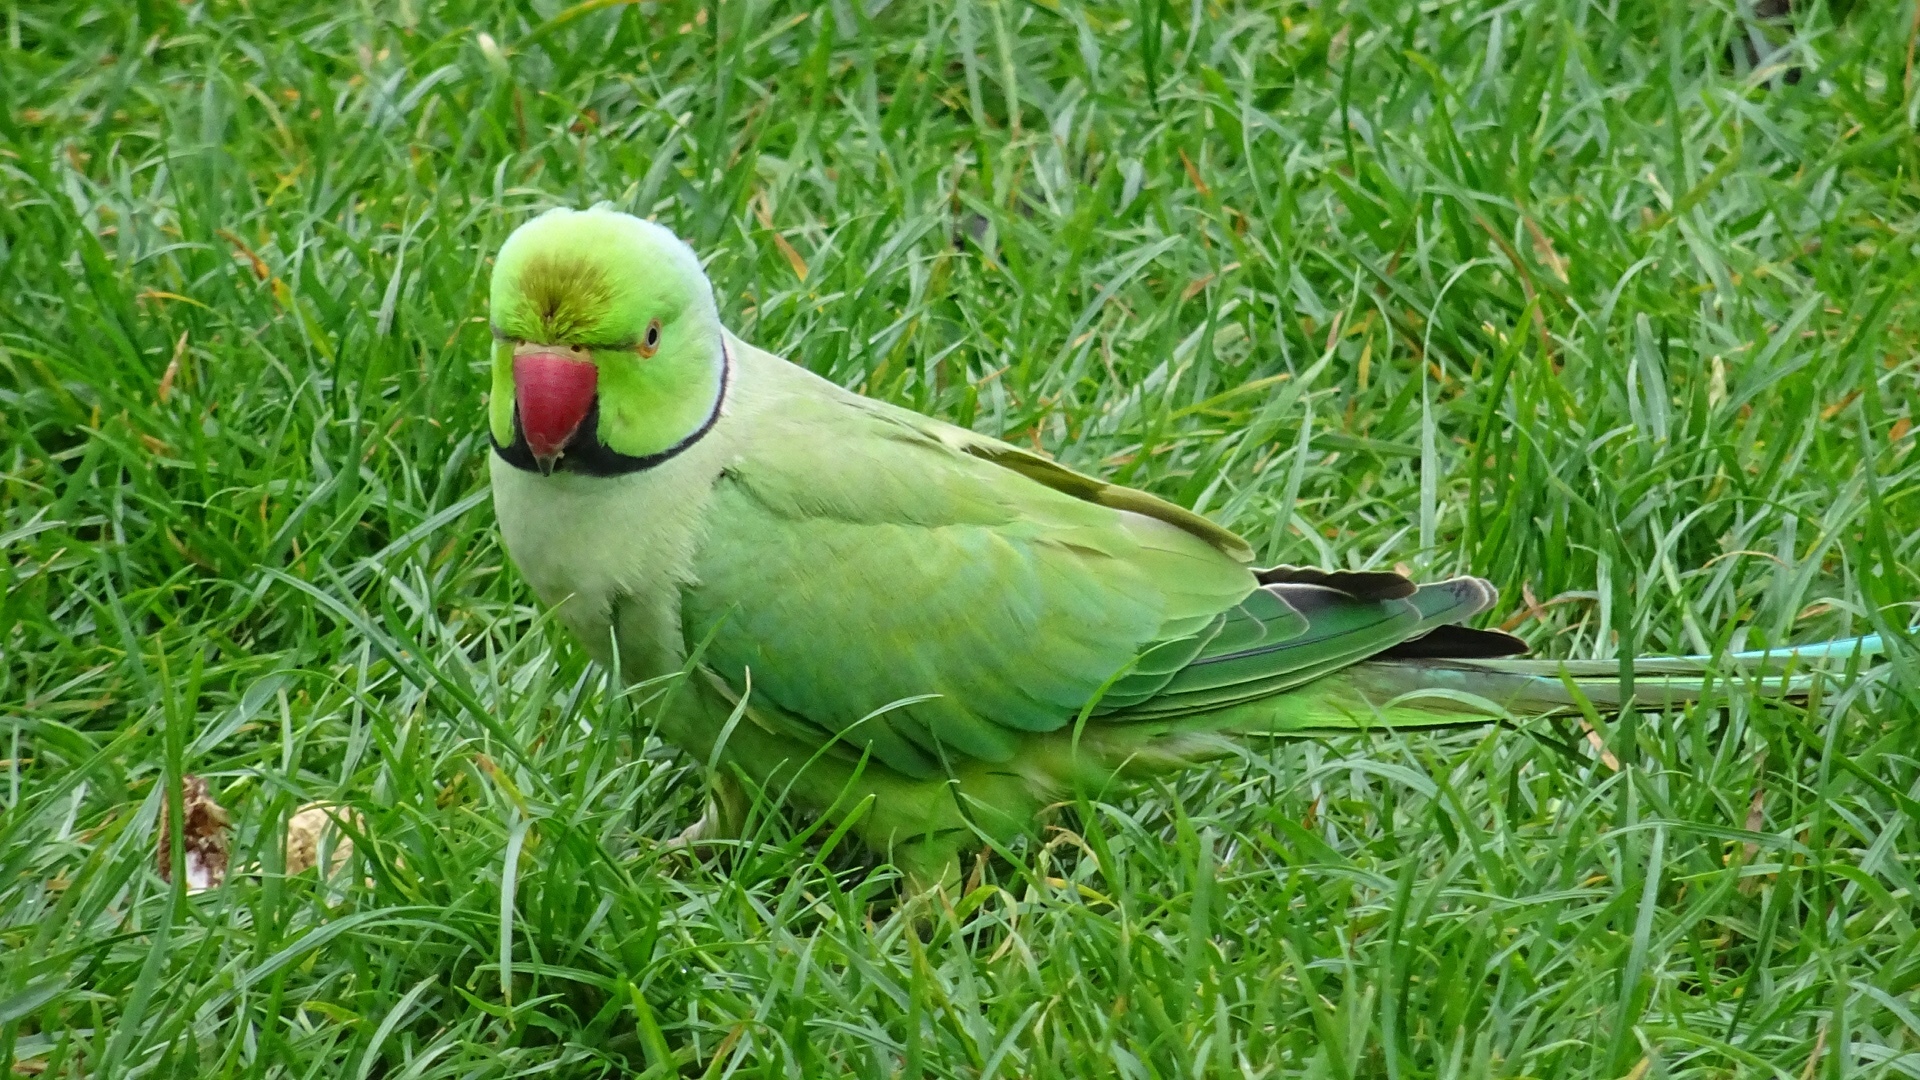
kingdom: Animalia
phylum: Chordata
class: Aves
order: Psittaciformes
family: Psittacidae
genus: Psittacula
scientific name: Psittacula krameri
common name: Rose-ringed parakeet
